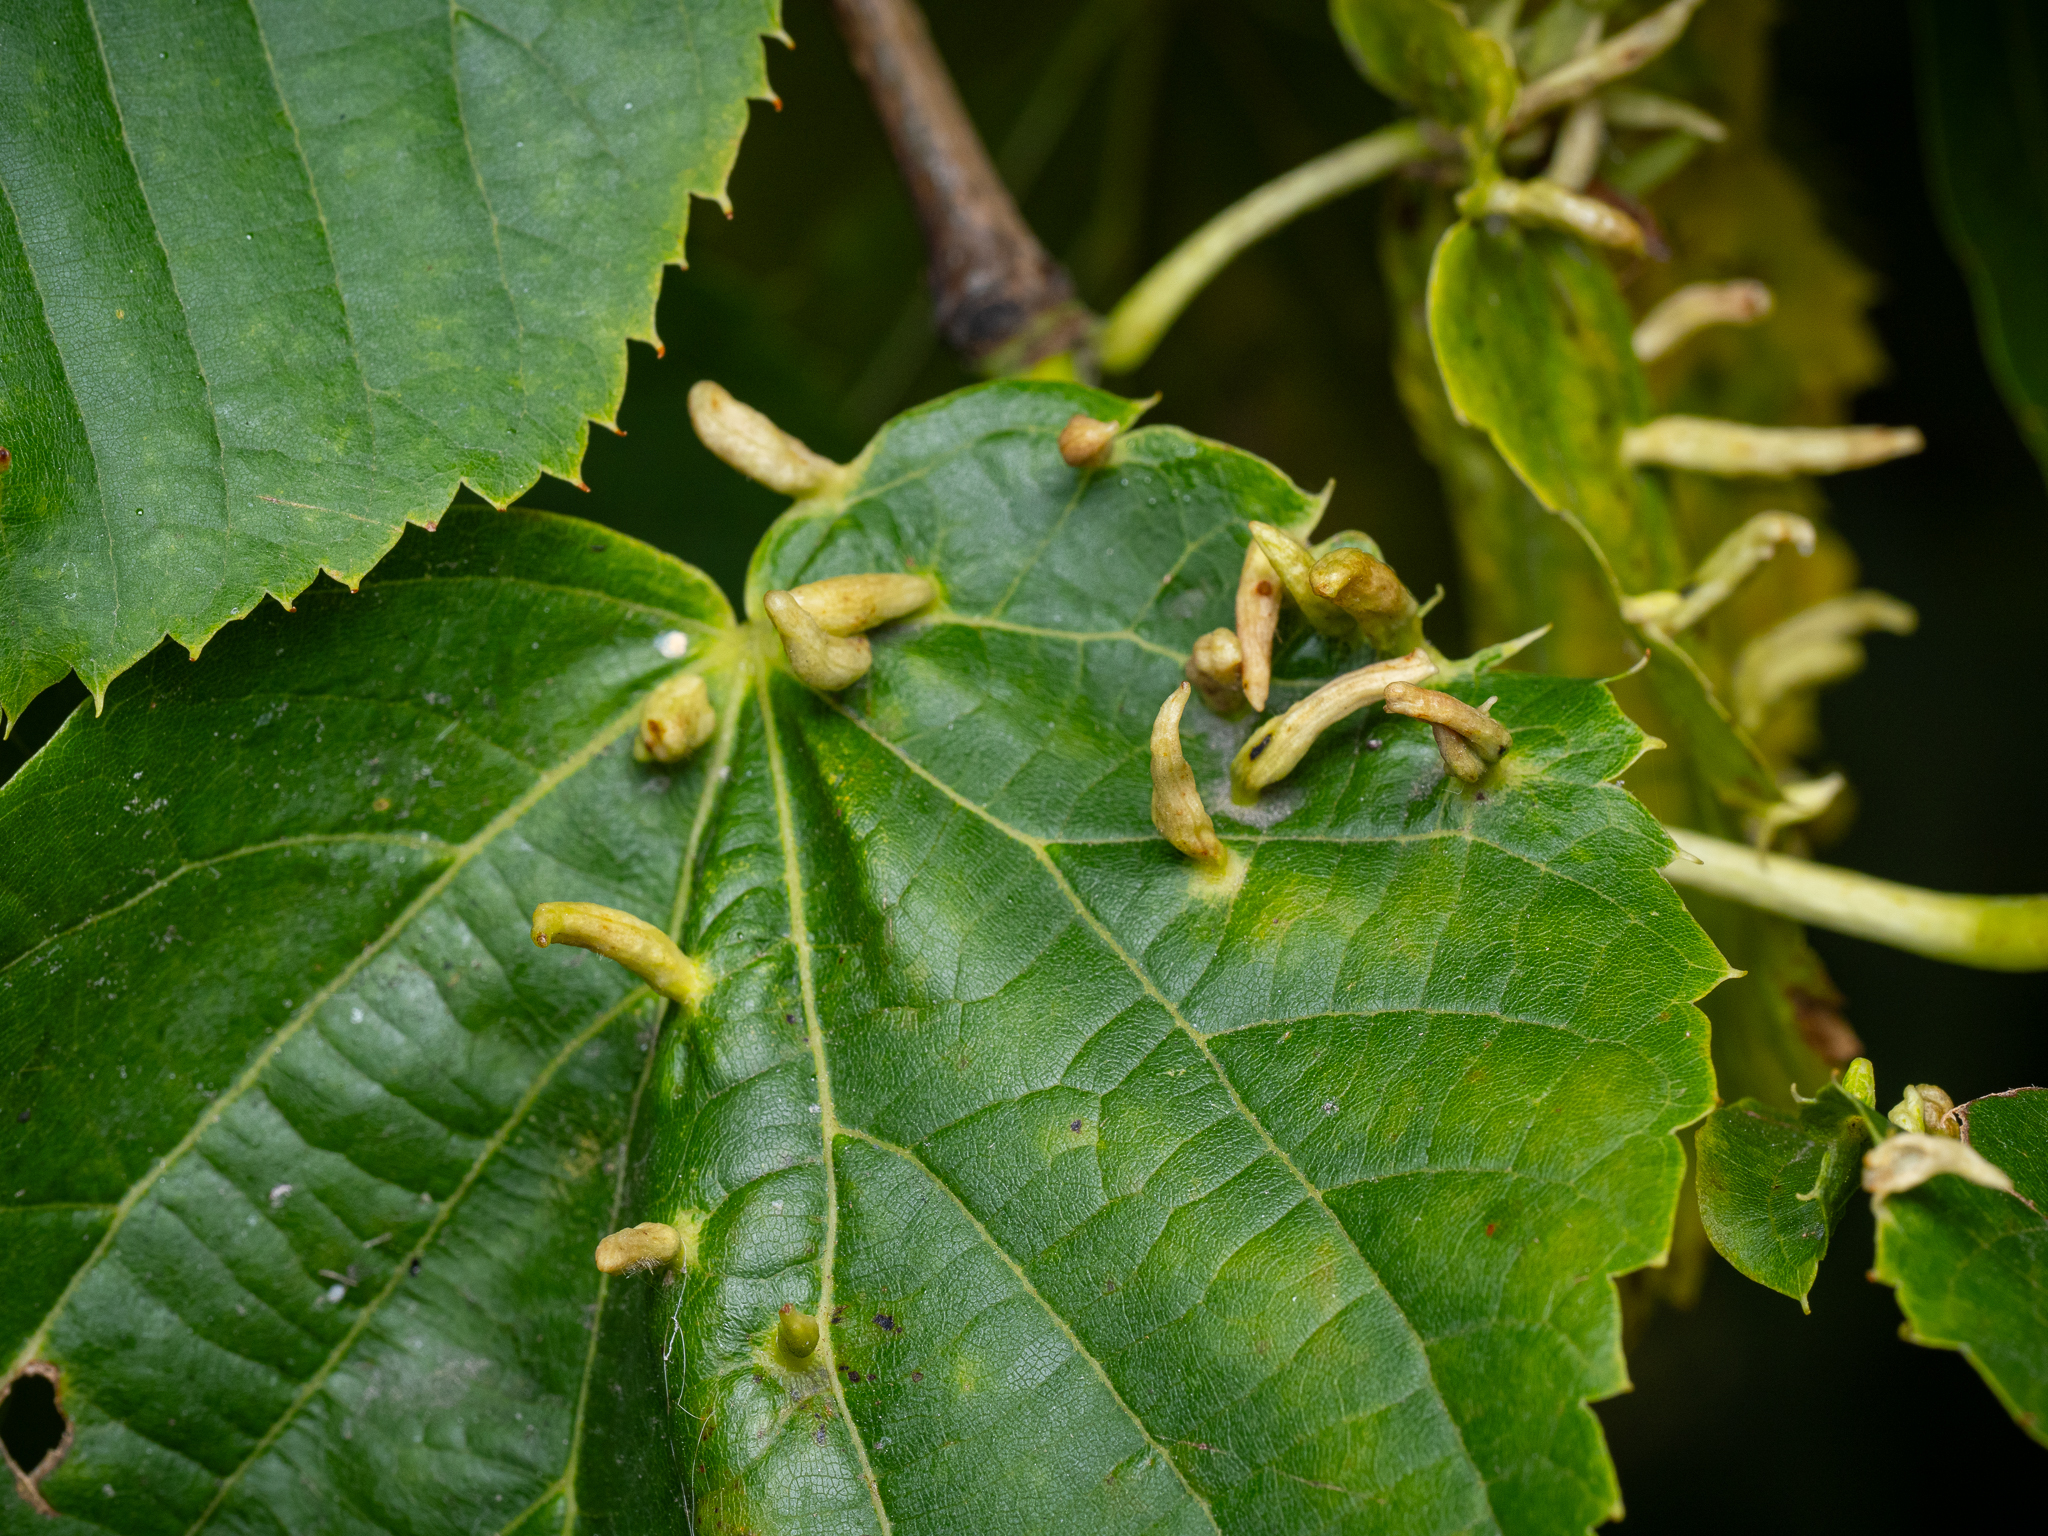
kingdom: Animalia
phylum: Arthropoda
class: Arachnida
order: Trombidiformes
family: Eriophyidae
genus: Eriophyes
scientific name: Eriophyes tiliae
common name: Red nail gall mite
